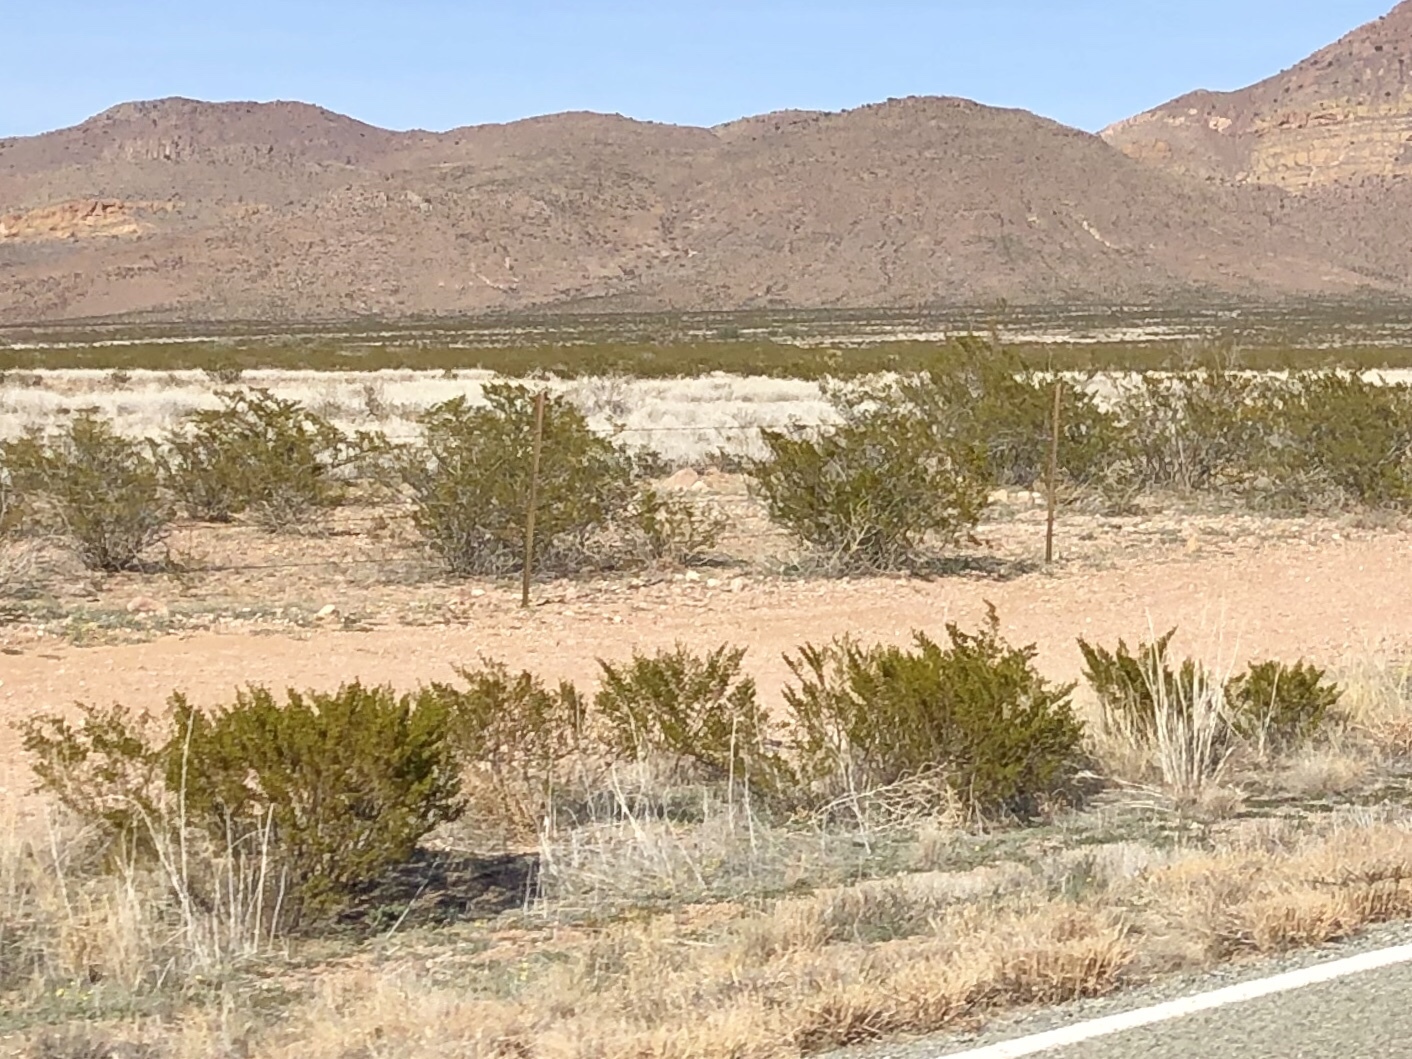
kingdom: Plantae
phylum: Tracheophyta
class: Magnoliopsida
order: Zygophyllales
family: Zygophyllaceae
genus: Larrea
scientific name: Larrea tridentata
